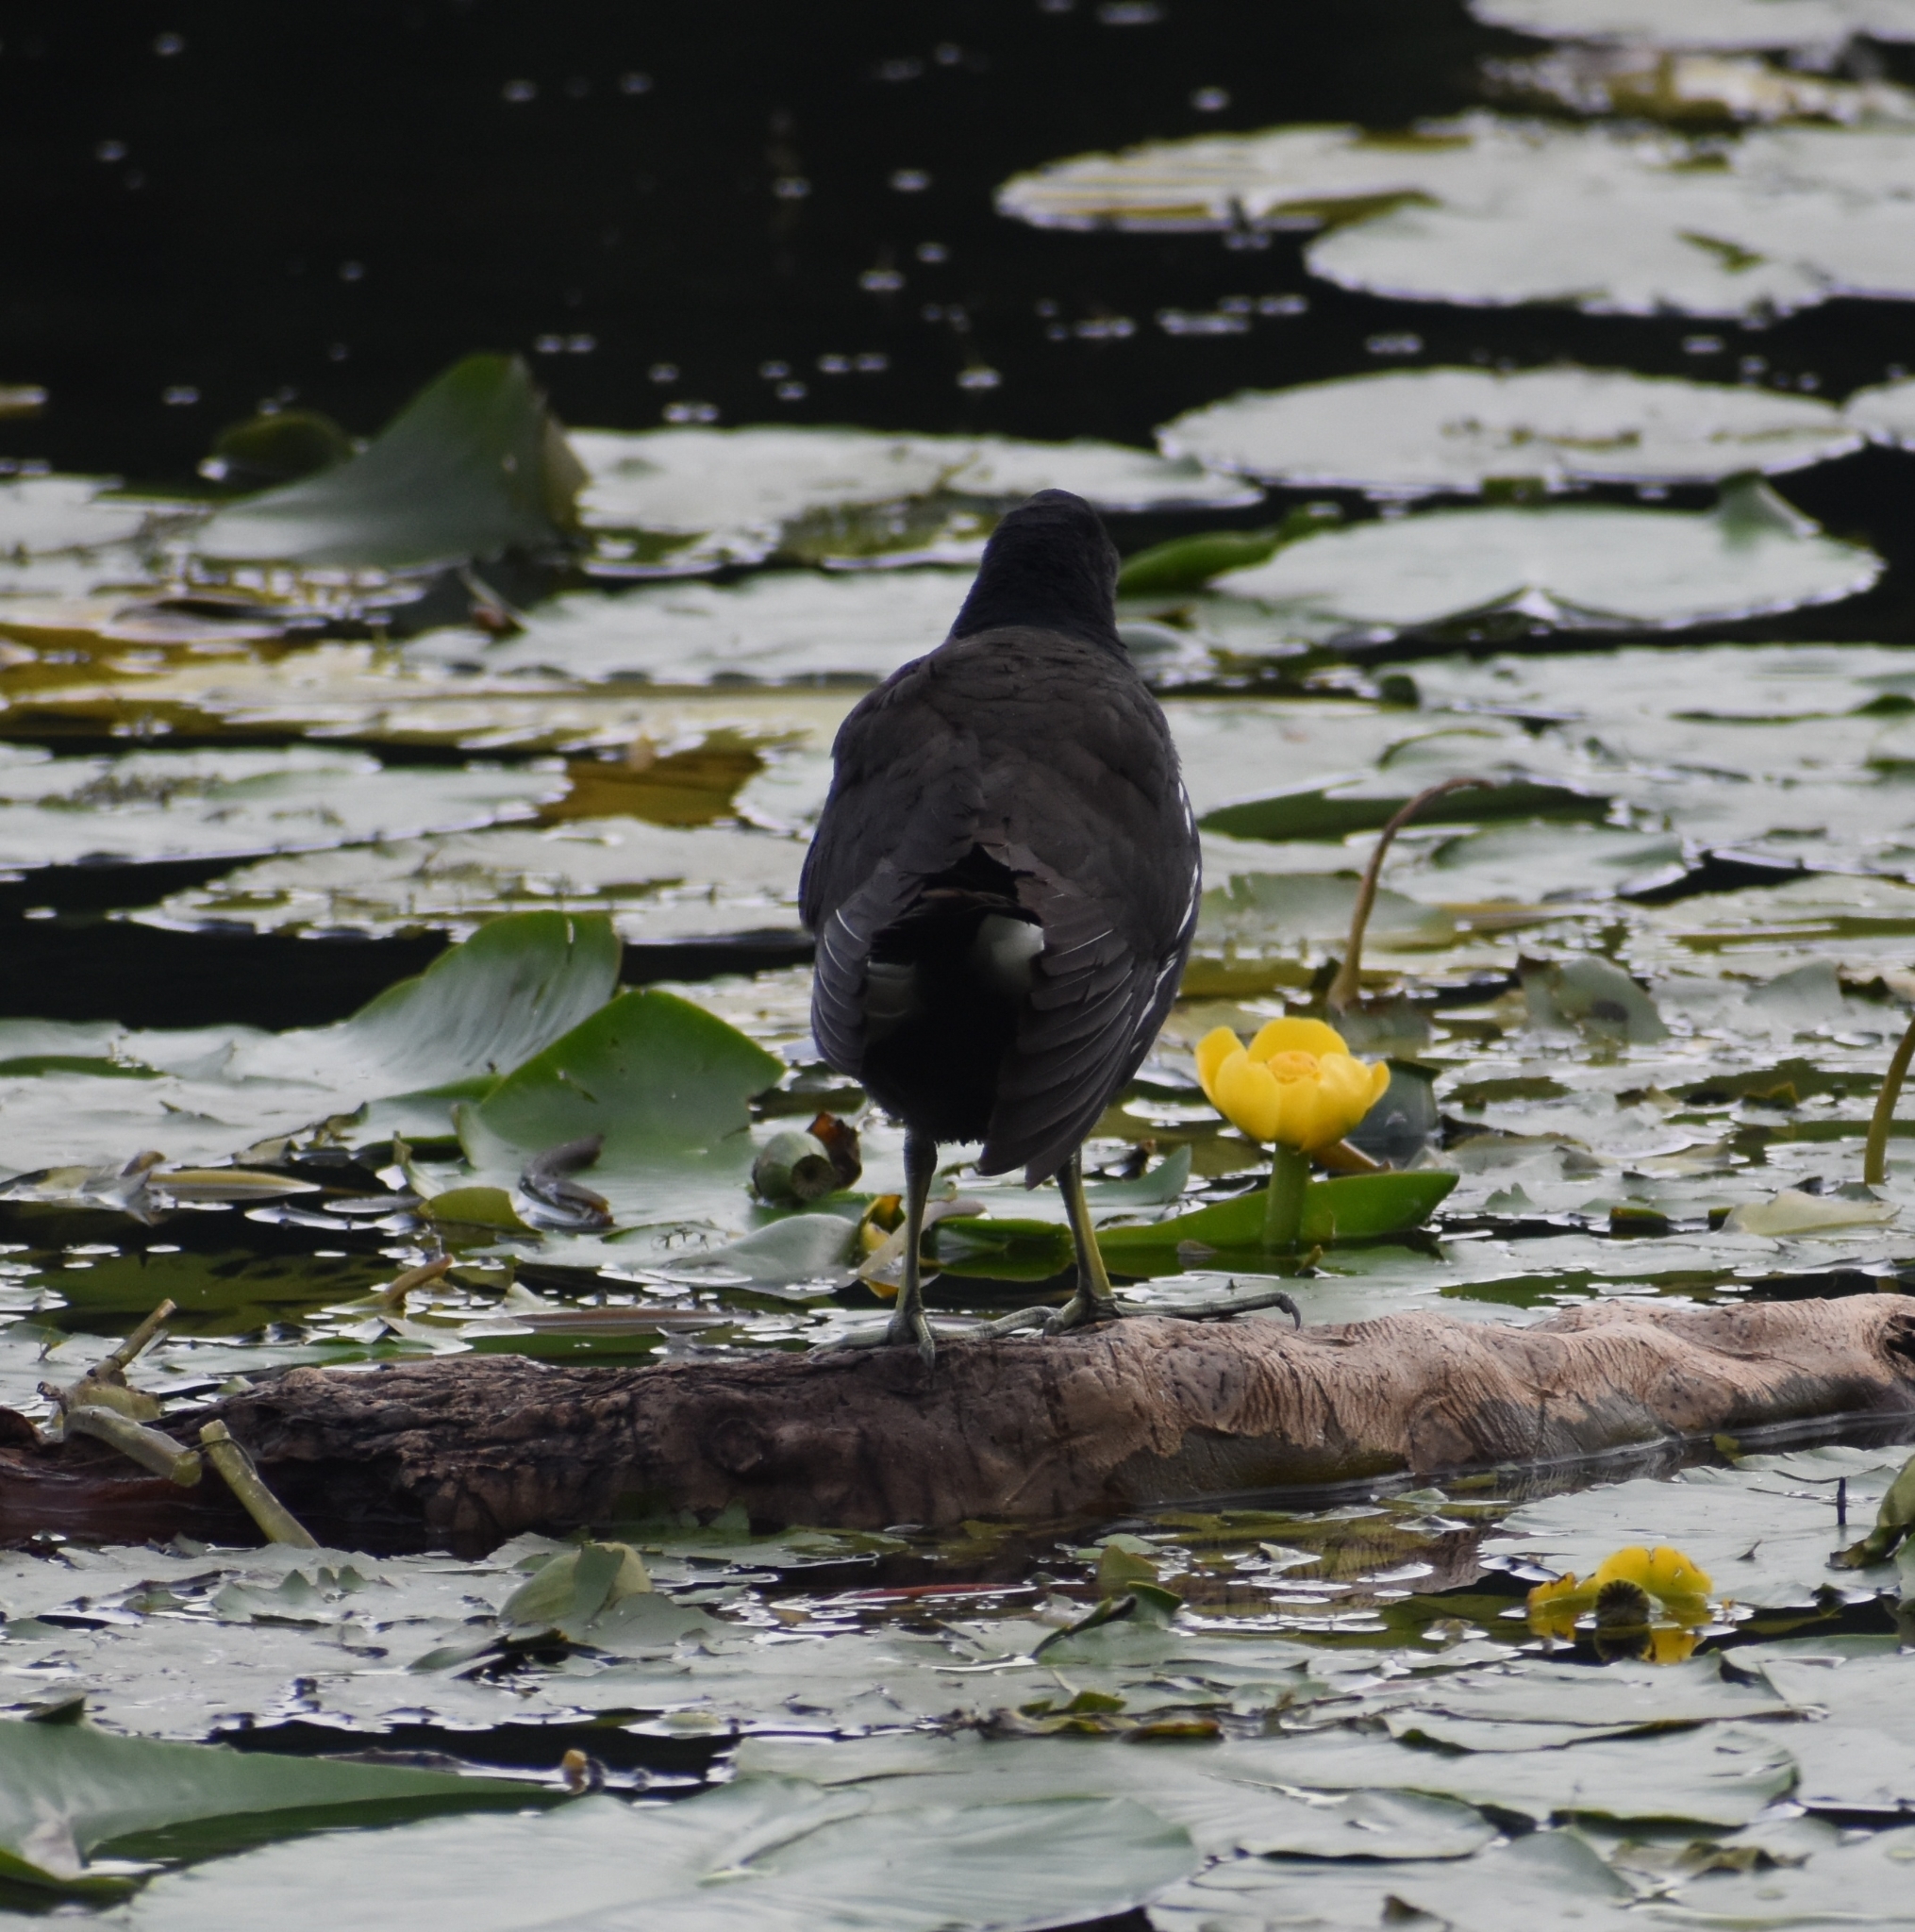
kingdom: Animalia
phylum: Chordata
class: Aves
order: Gruiformes
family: Rallidae
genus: Gallinula
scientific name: Gallinula chloropus
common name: Common moorhen
